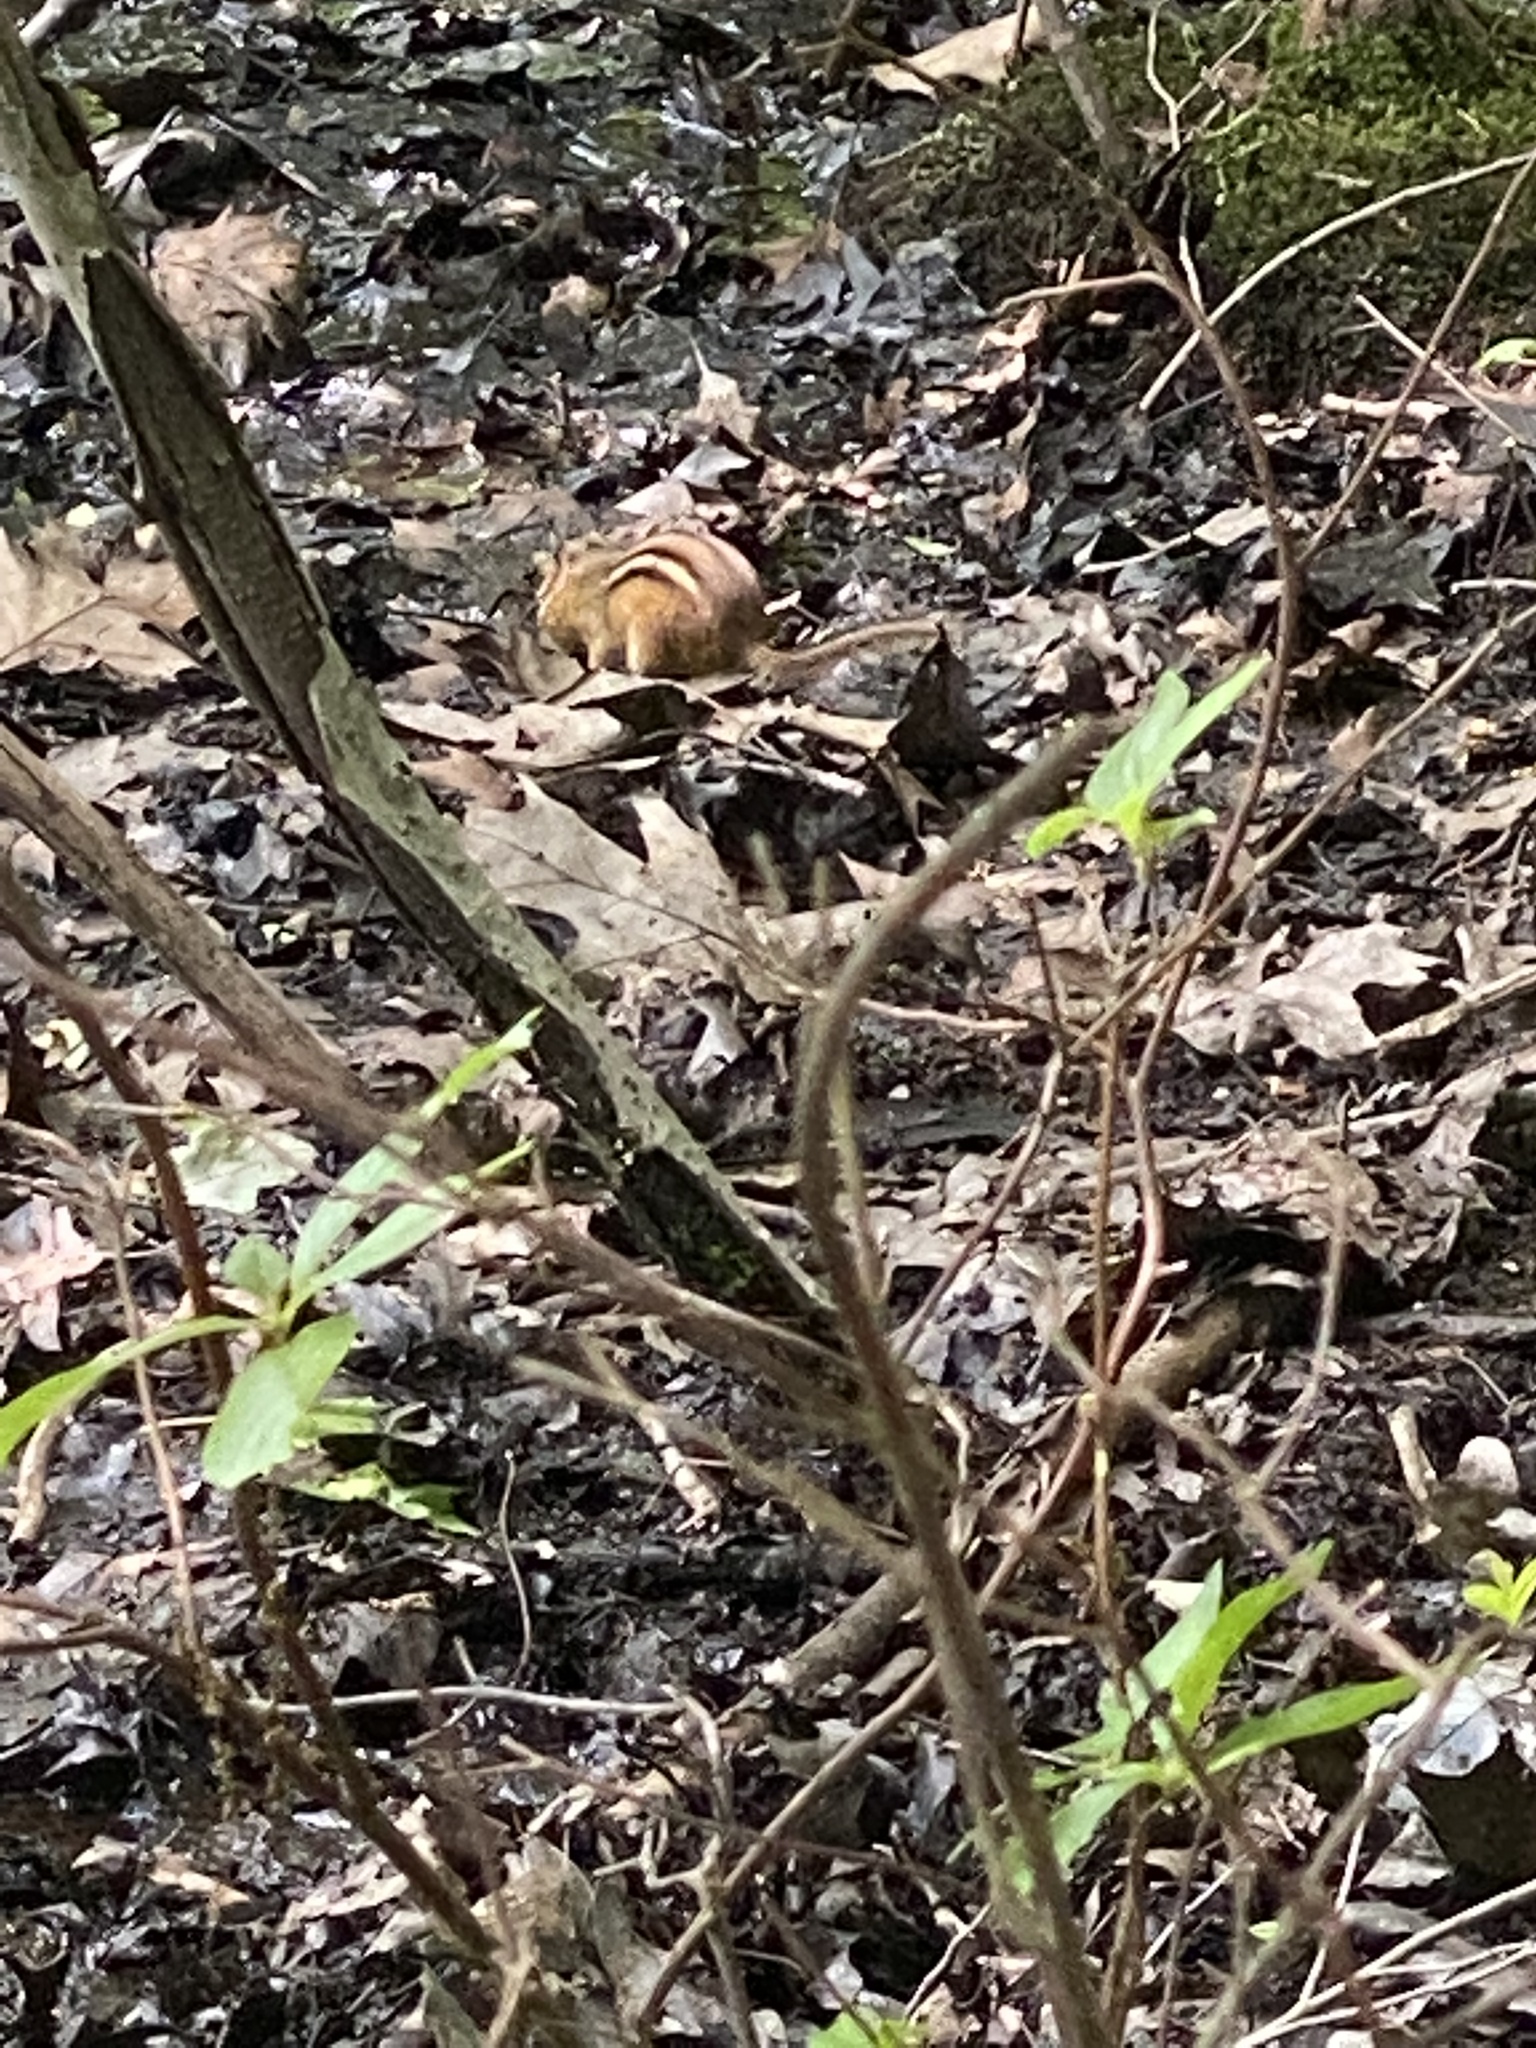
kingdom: Animalia
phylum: Chordata
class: Mammalia
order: Rodentia
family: Sciuridae
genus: Tamias
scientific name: Tamias striatus
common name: Eastern chipmunk
